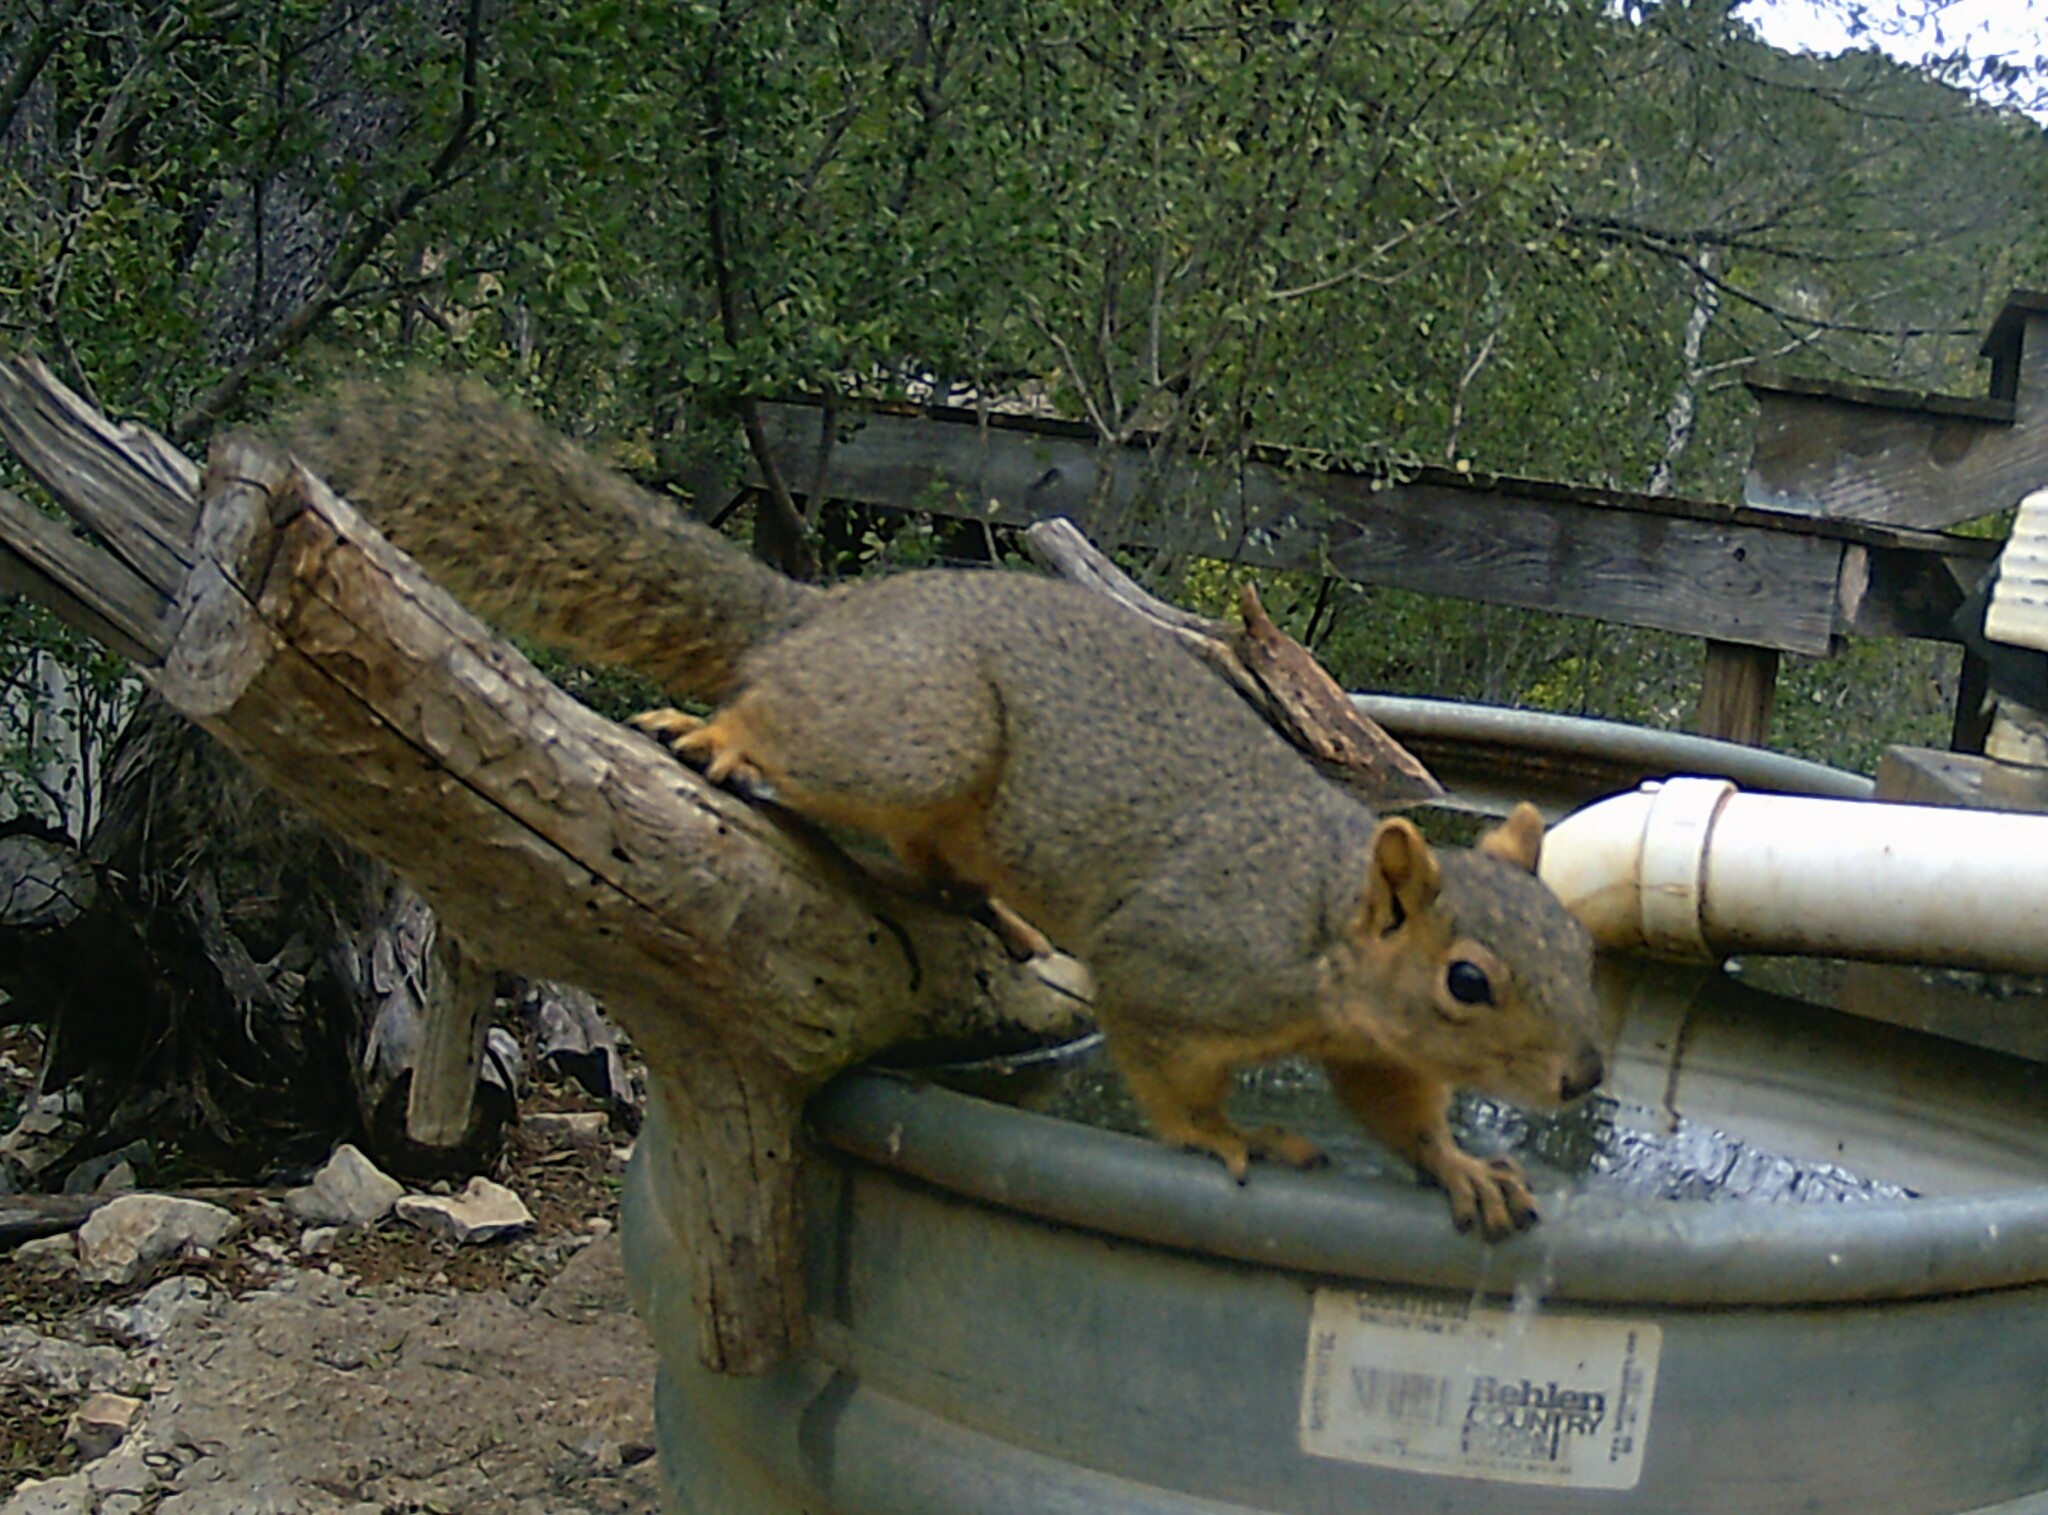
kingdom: Animalia
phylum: Chordata
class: Mammalia
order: Rodentia
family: Sciuridae
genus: Sciurus
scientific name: Sciurus niger
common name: Fox squirrel
